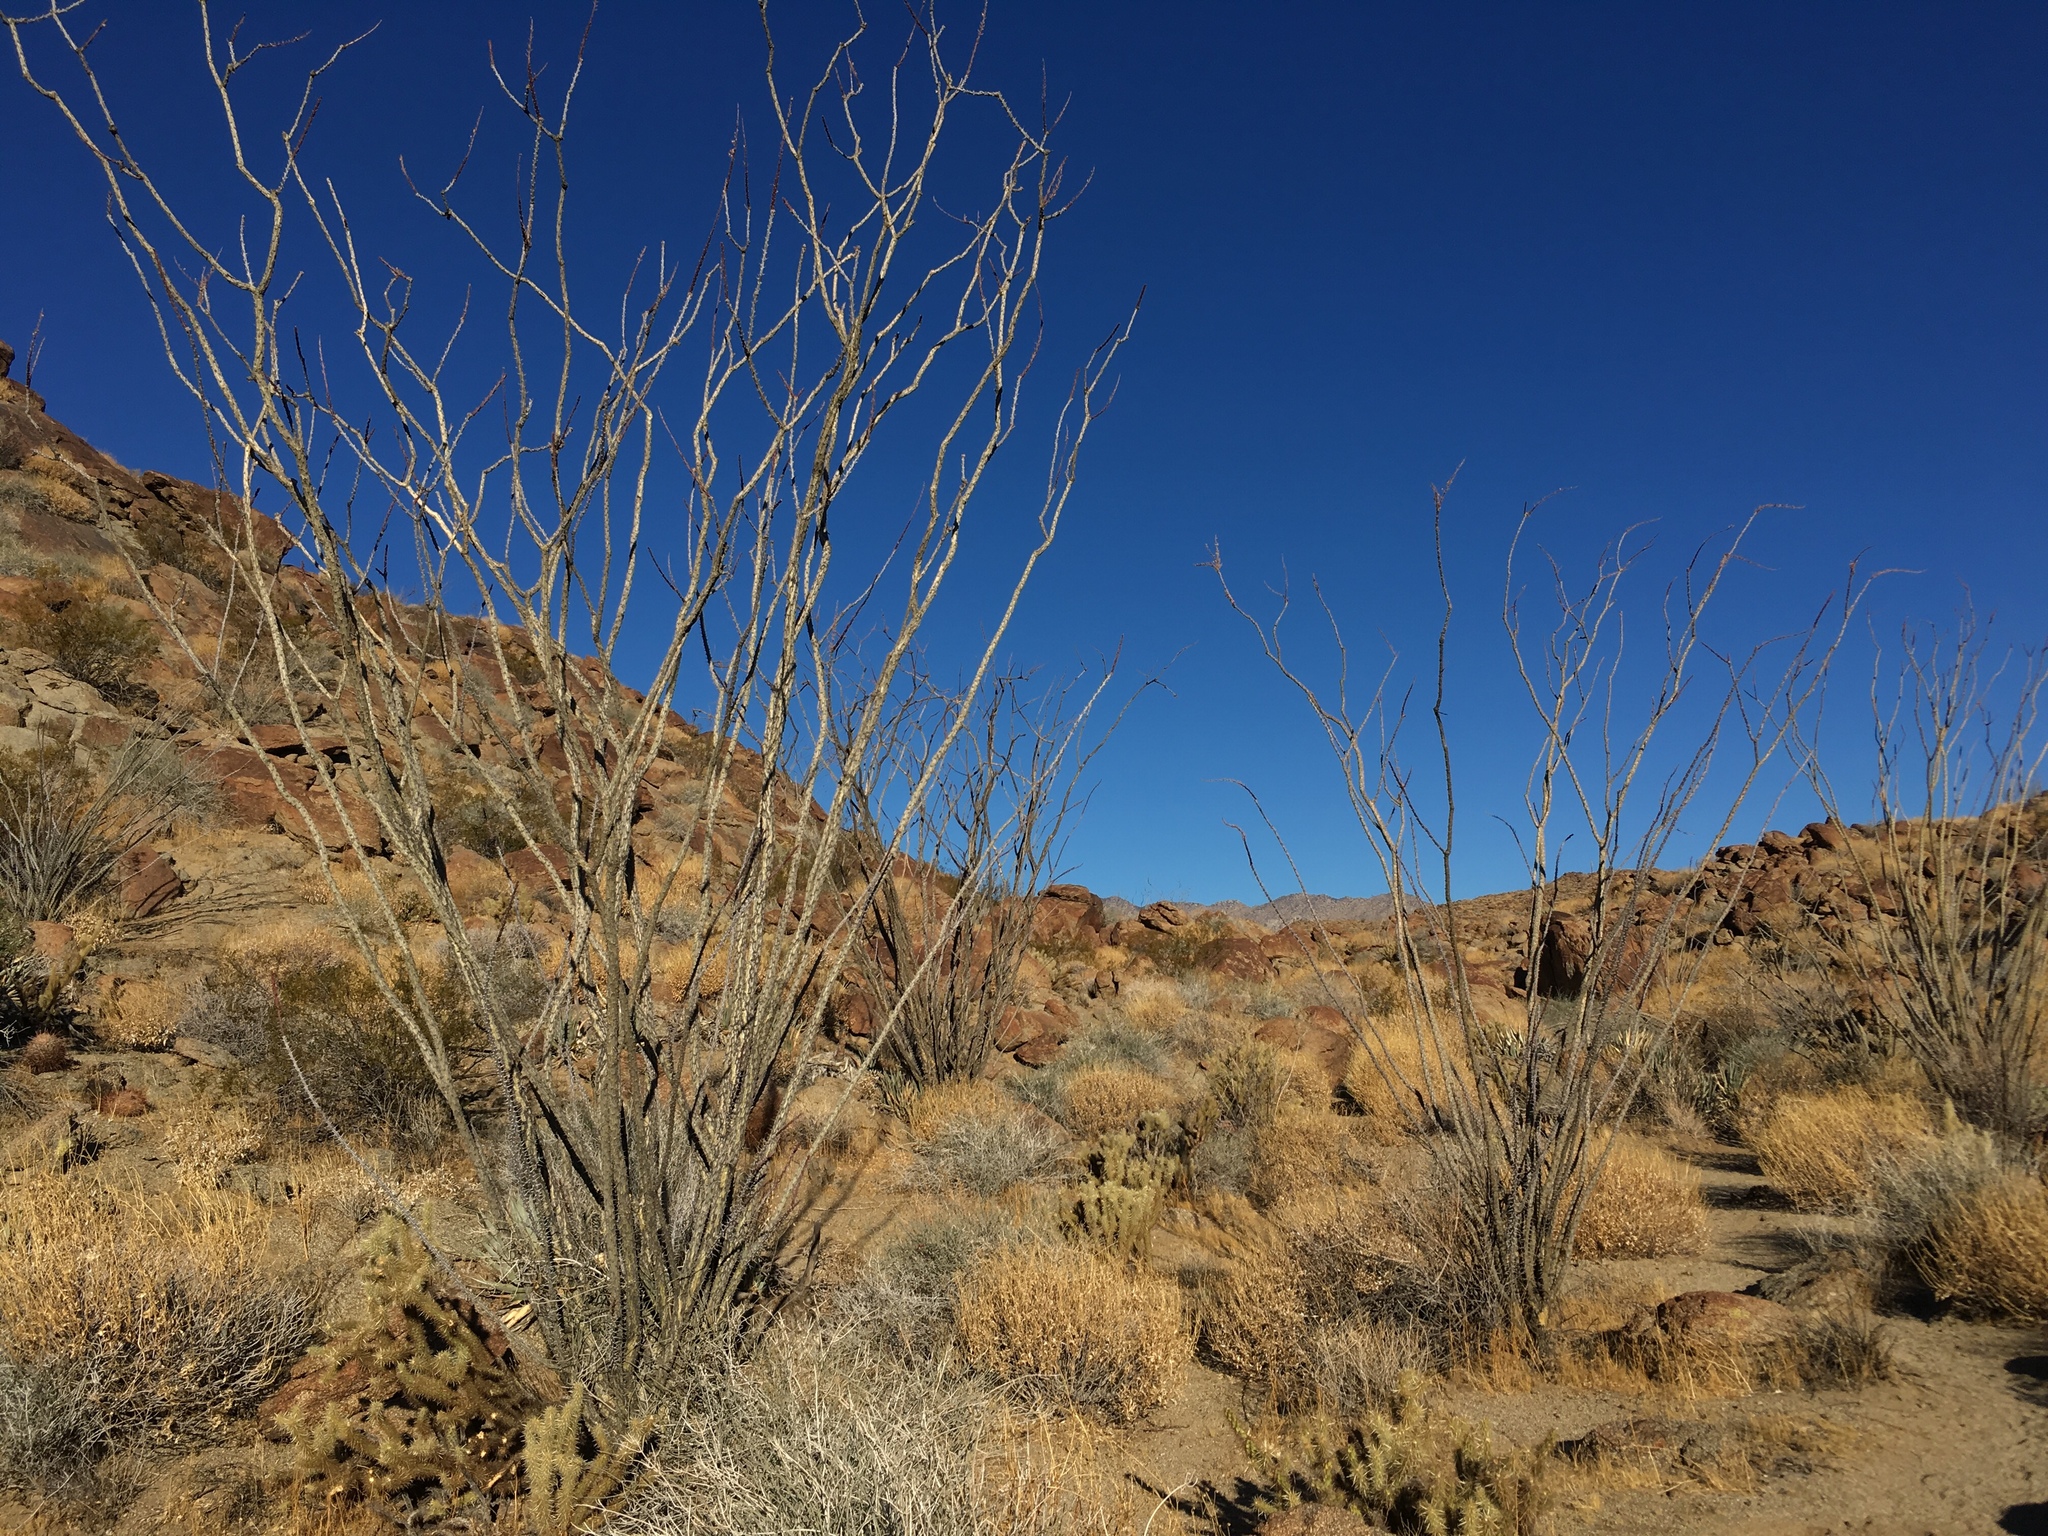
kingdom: Plantae
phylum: Tracheophyta
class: Magnoliopsida
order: Ericales
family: Fouquieriaceae
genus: Fouquieria
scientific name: Fouquieria splendens
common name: Vine-cactus
